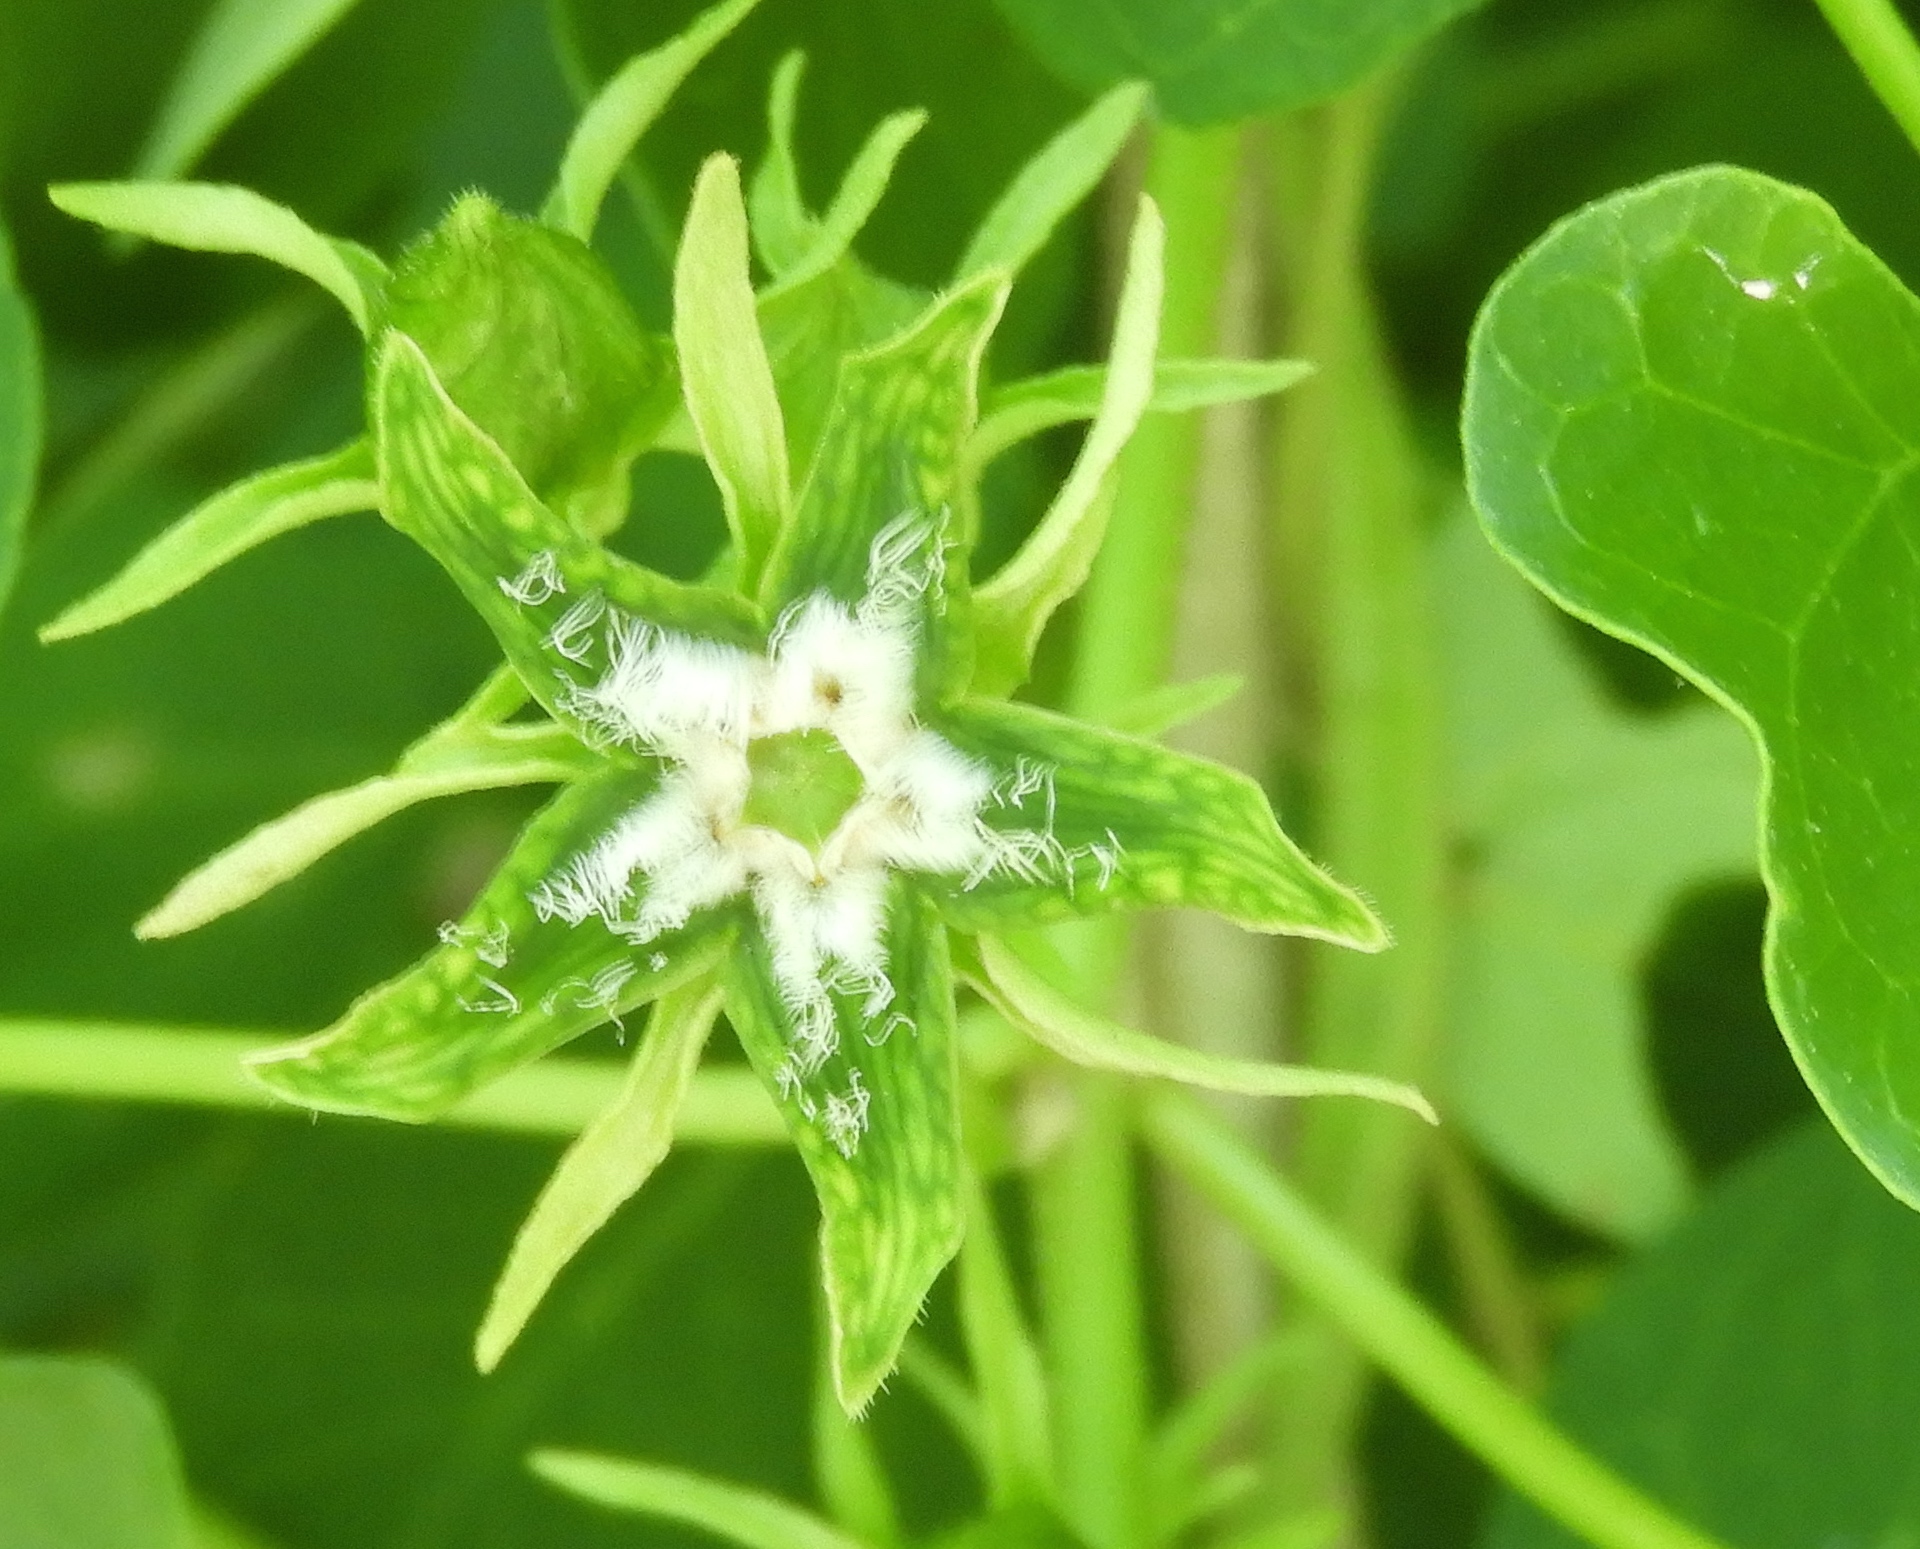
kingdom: Plantae
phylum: Tracheophyta
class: Magnoliopsida
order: Gentianales
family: Apocynaceae
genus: Gonolobus
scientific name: Gonolobus naturalistae
